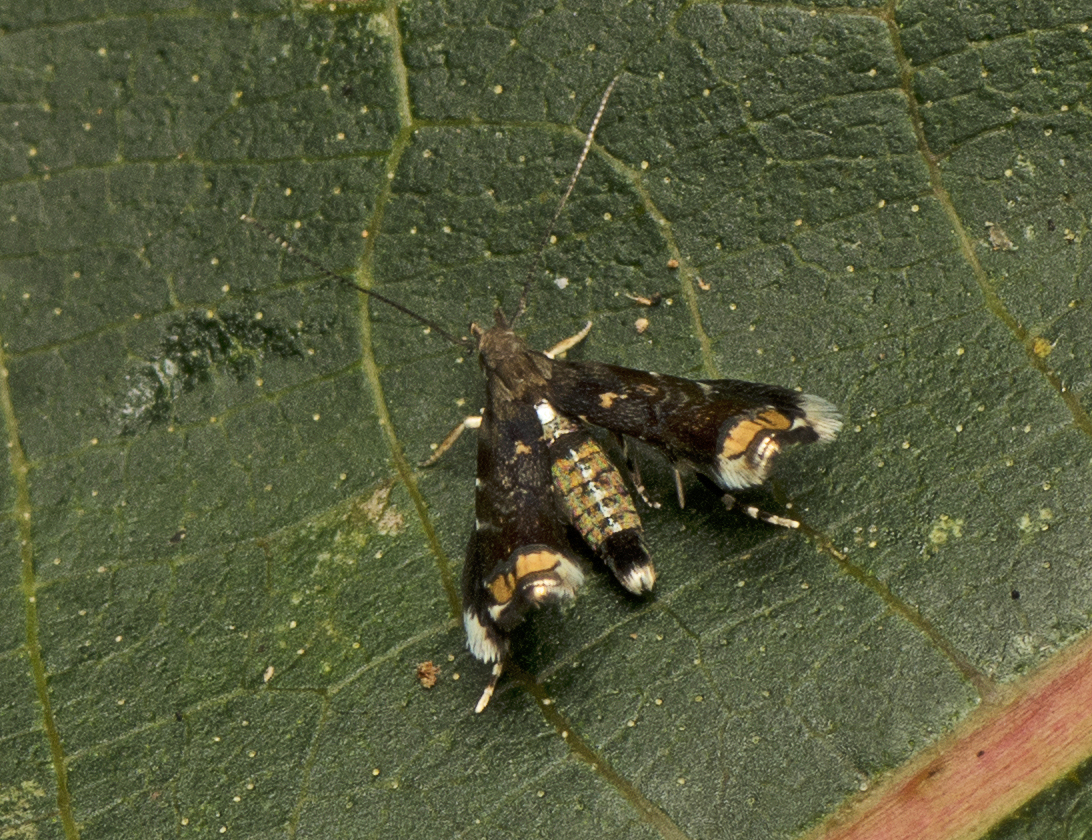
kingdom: Animalia
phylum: Arthropoda
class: Insecta
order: Lepidoptera
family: Gelechiidae
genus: Onebala
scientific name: Onebala
